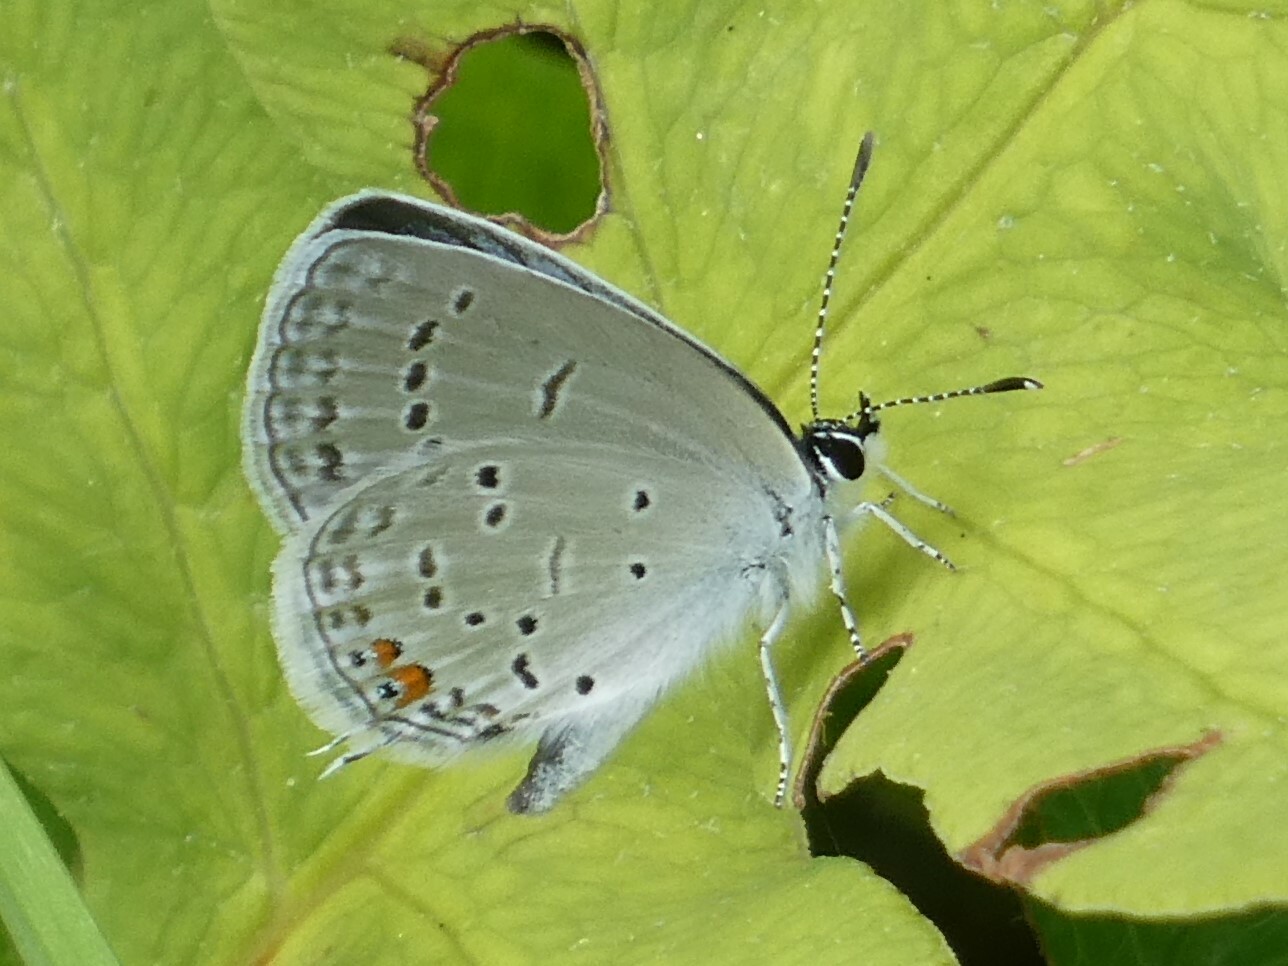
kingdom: Animalia
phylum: Arthropoda
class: Insecta
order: Lepidoptera
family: Lycaenidae
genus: Elkalyce
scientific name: Elkalyce comyntas
